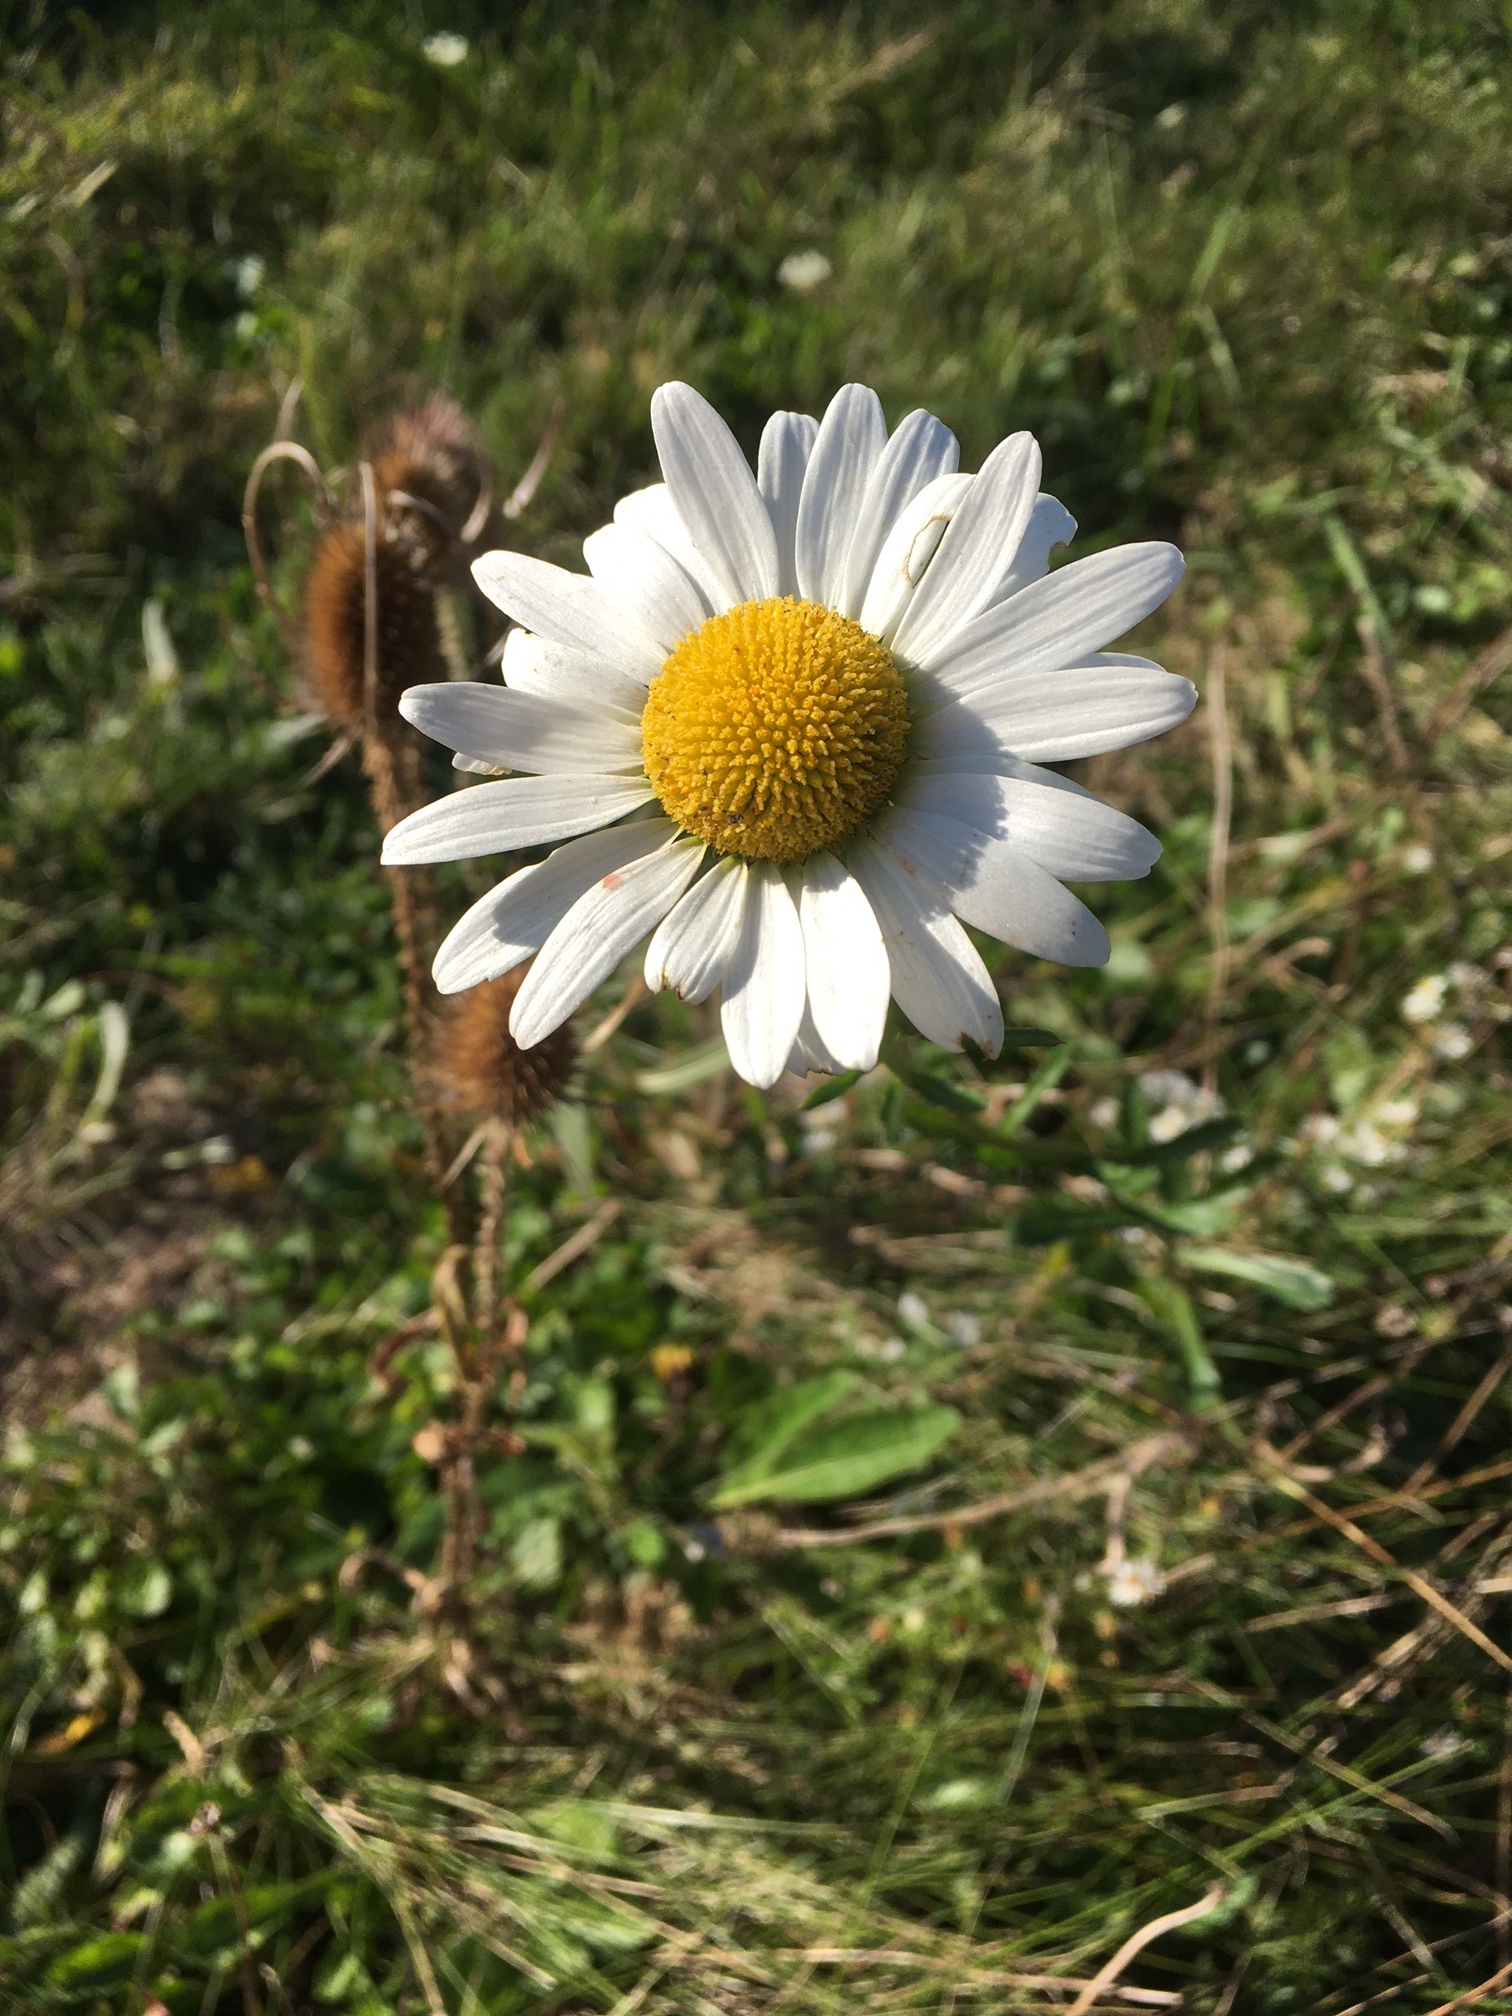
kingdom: Plantae
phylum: Tracheophyta
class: Magnoliopsida
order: Asterales
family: Asteraceae
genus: Leucanthemum
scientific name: Leucanthemum vulgare
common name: Oxeye daisy
